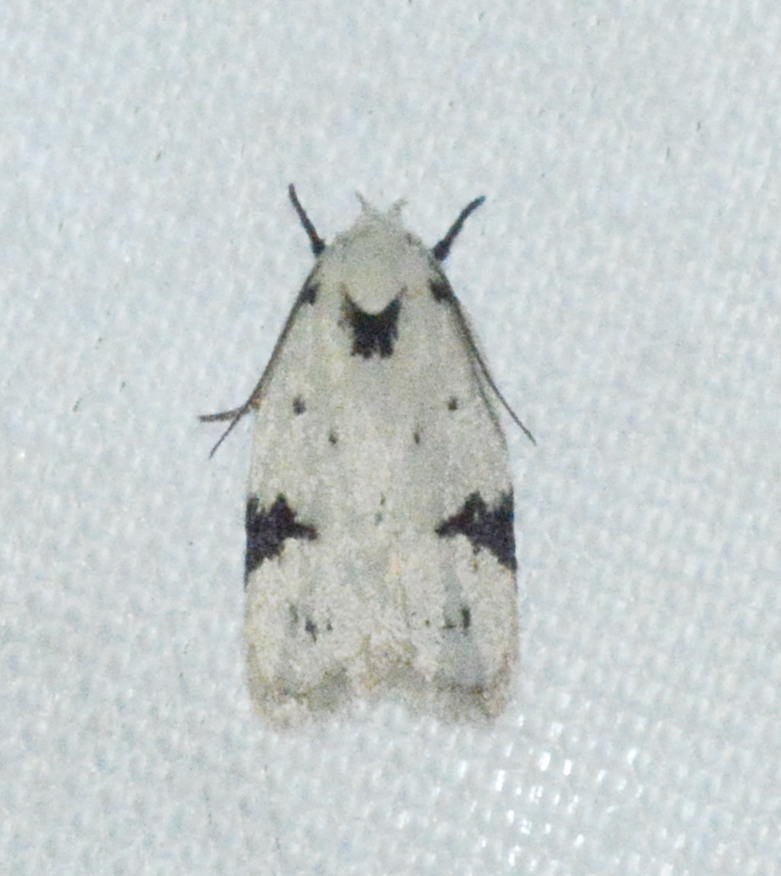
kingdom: Animalia
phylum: Arthropoda
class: Insecta
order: Lepidoptera
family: Oecophoridae
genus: Inga
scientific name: Inga sparsiciliella
